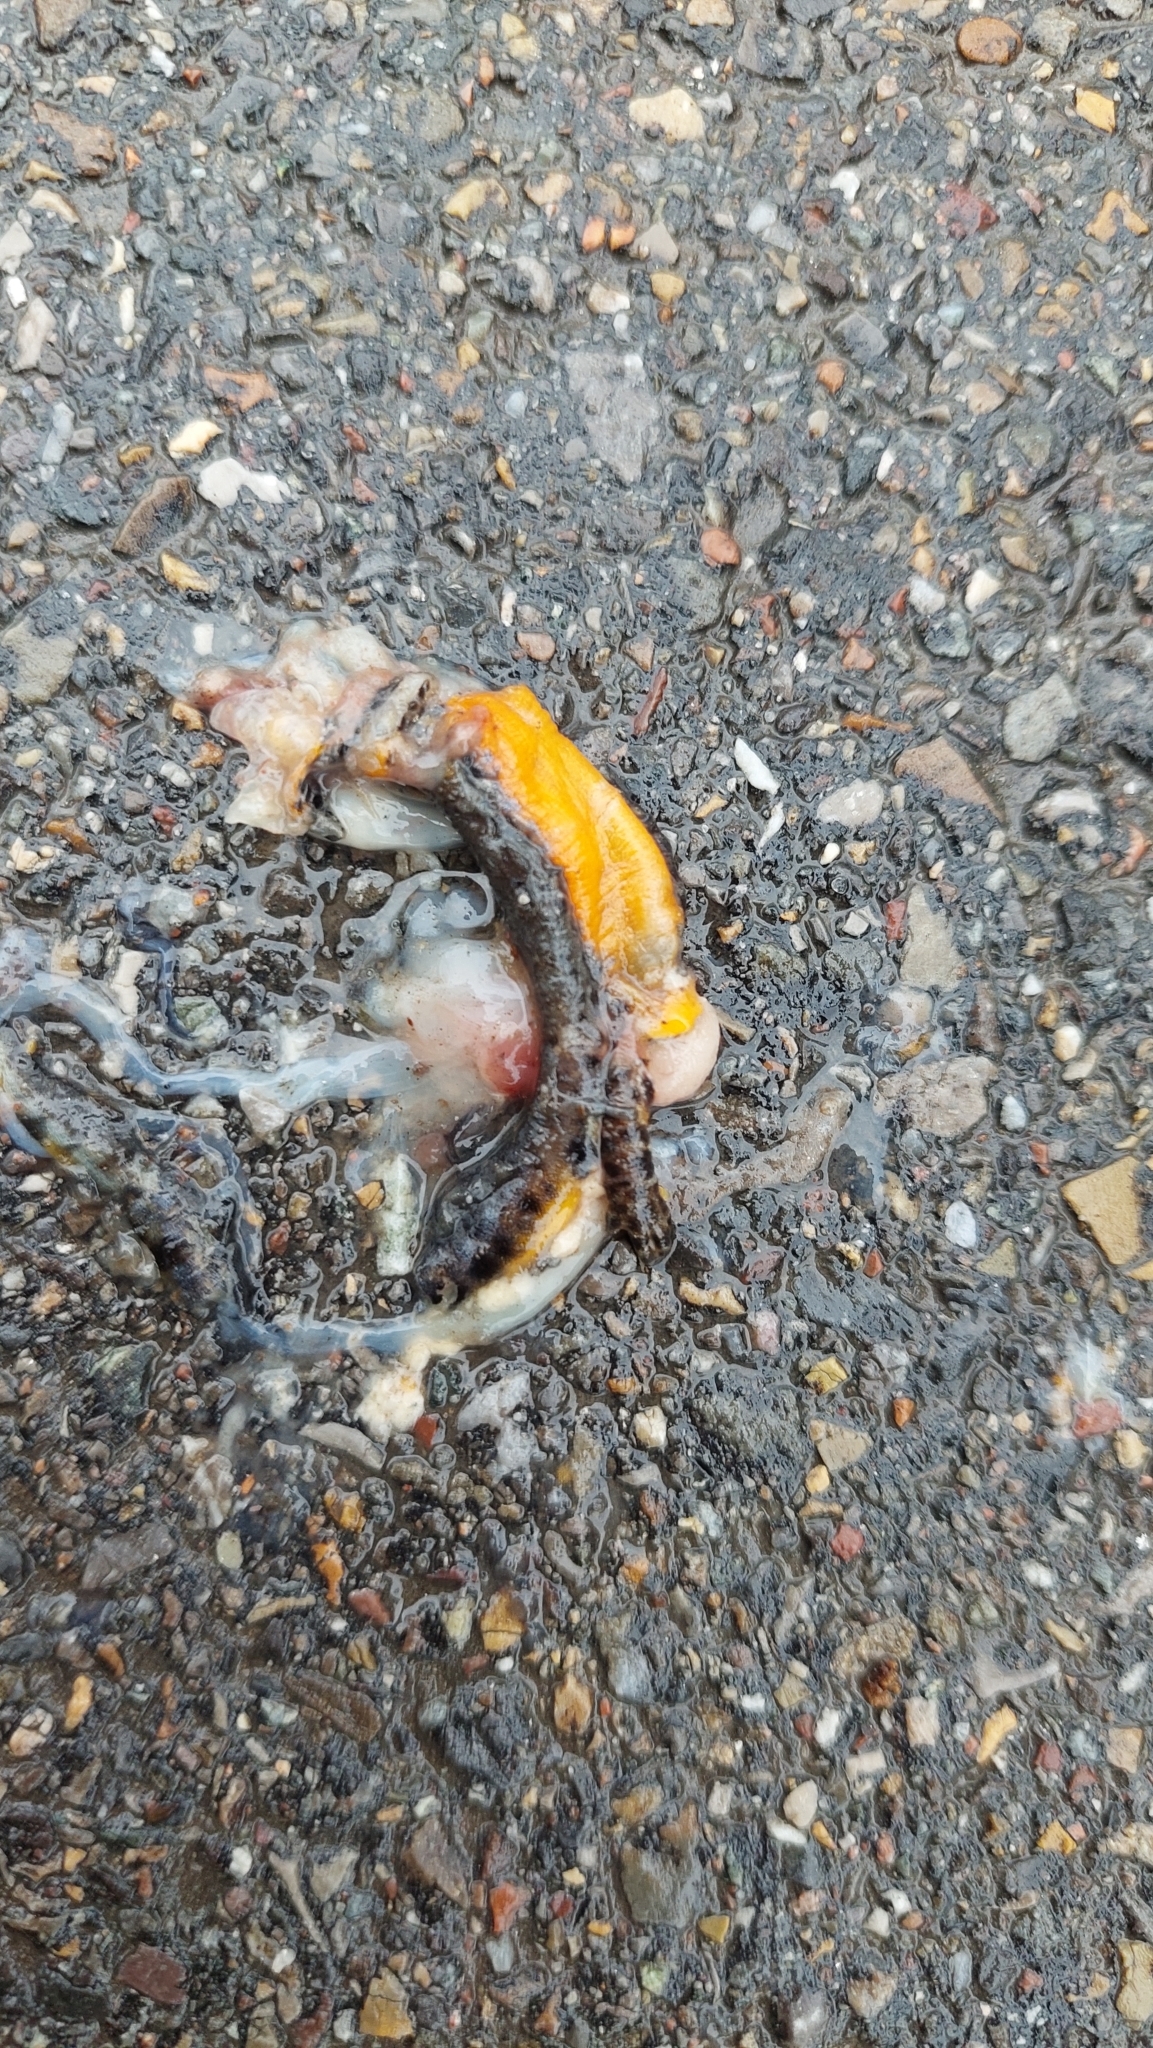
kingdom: Animalia
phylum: Chordata
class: Amphibia
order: Caudata
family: Salamandridae
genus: Ichthyosaura
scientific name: Ichthyosaura alpestris
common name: Alpine newt
